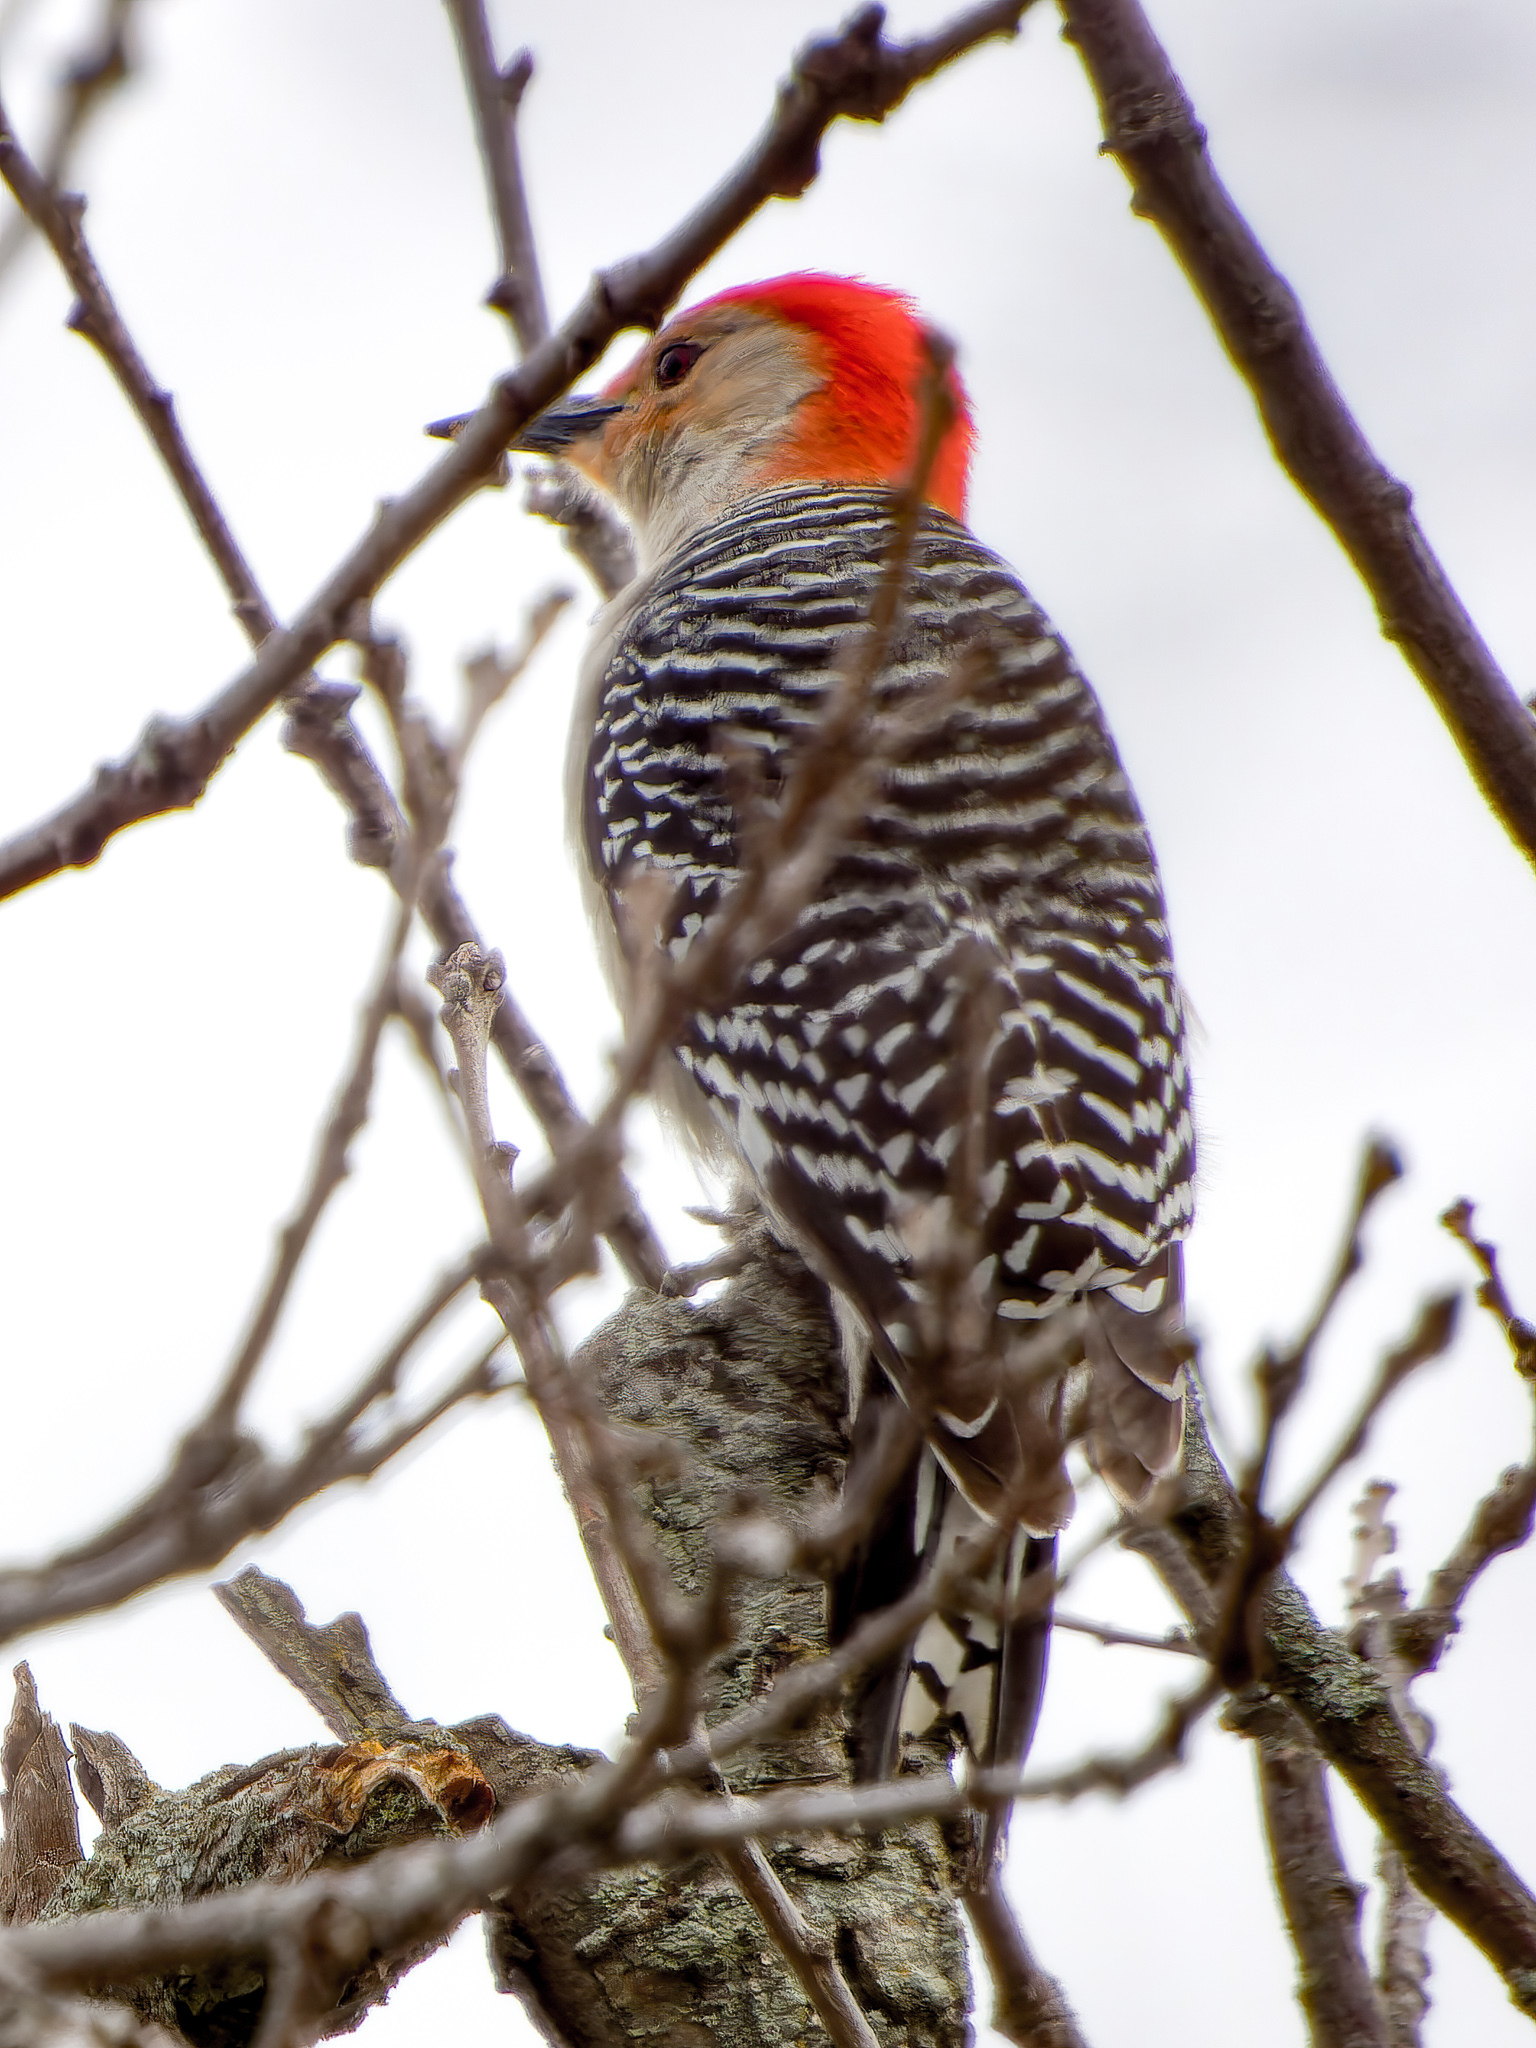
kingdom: Animalia
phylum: Chordata
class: Aves
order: Piciformes
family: Picidae
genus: Melanerpes
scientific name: Melanerpes carolinus
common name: Red-bellied woodpecker
